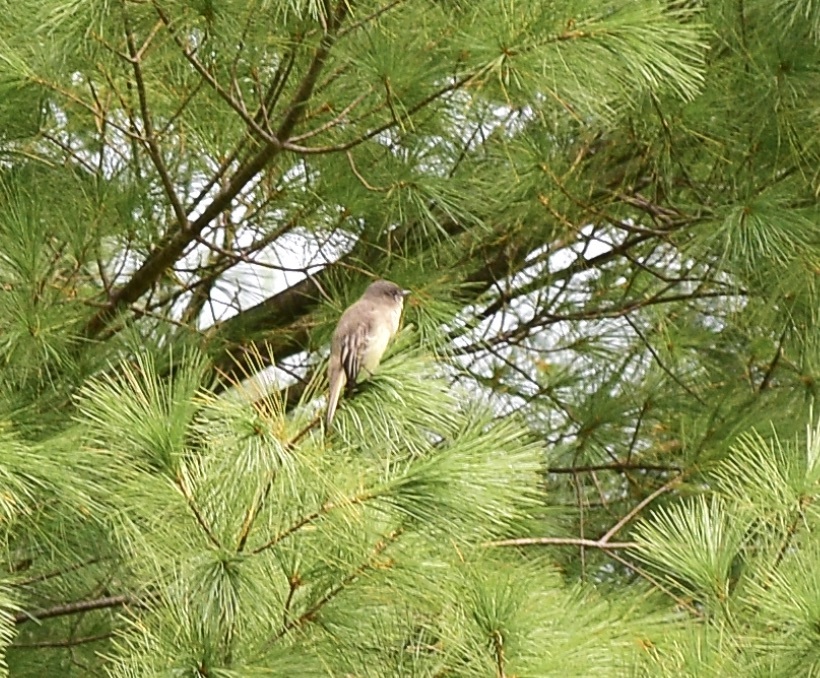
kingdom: Animalia
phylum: Chordata
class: Aves
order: Passeriformes
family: Tyrannidae
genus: Sayornis
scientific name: Sayornis phoebe
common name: Eastern phoebe
